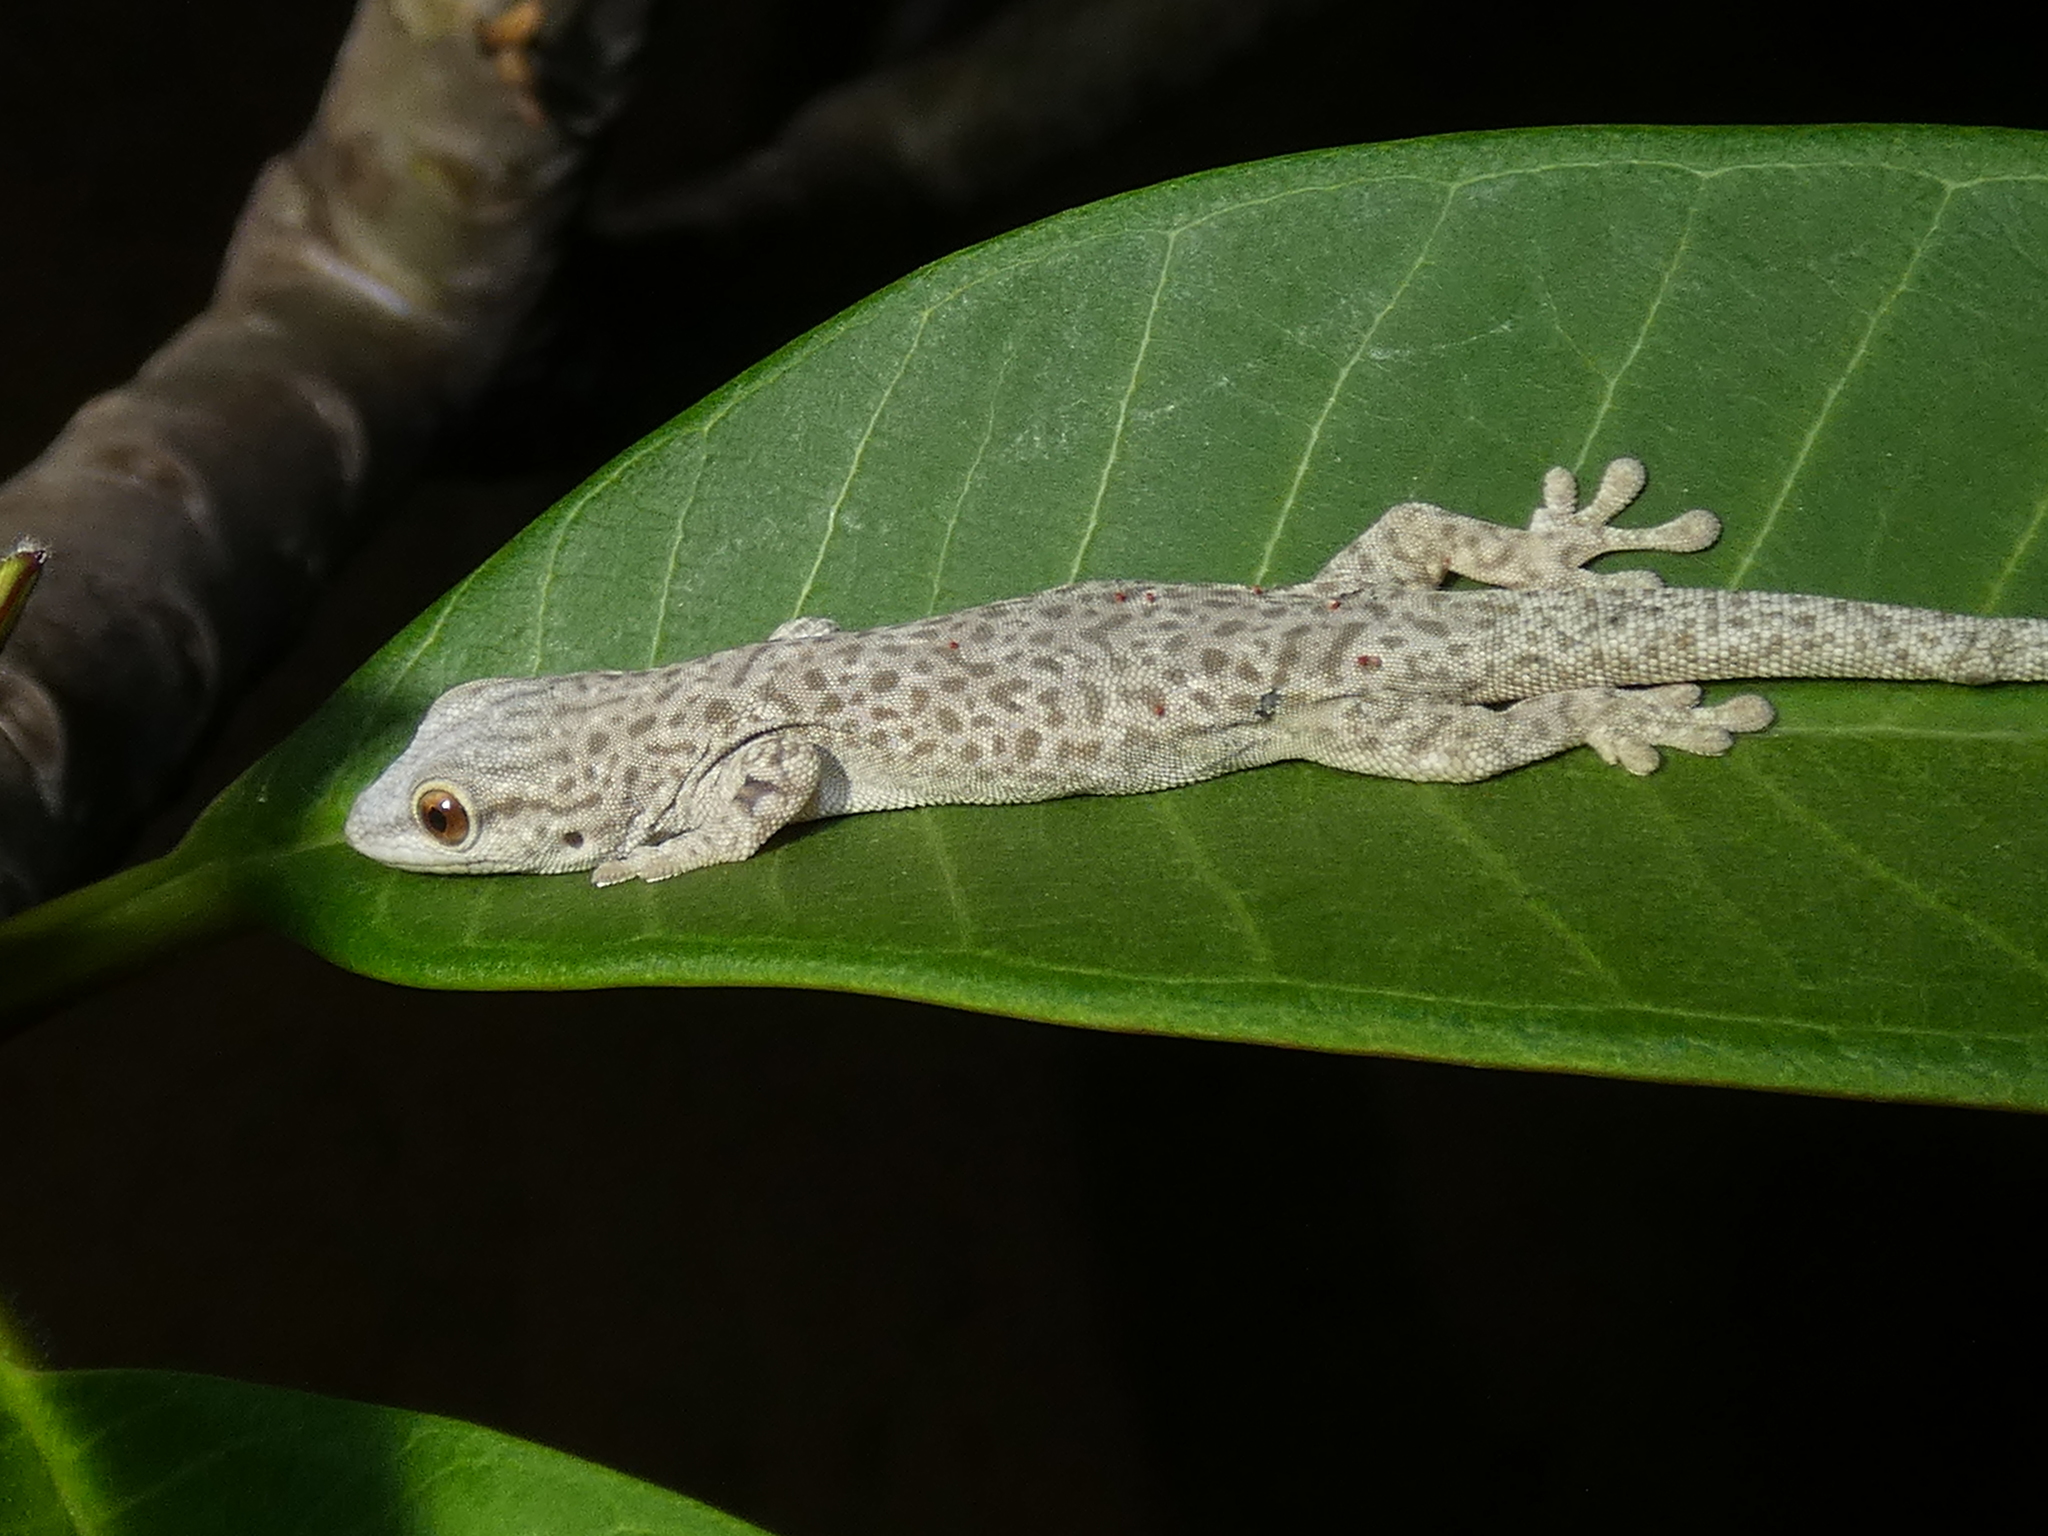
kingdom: Animalia
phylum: Chordata
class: Squamata
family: Gekkonidae
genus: Phelsuma
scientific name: Phelsuma mutabilis
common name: Thick tail gecko
